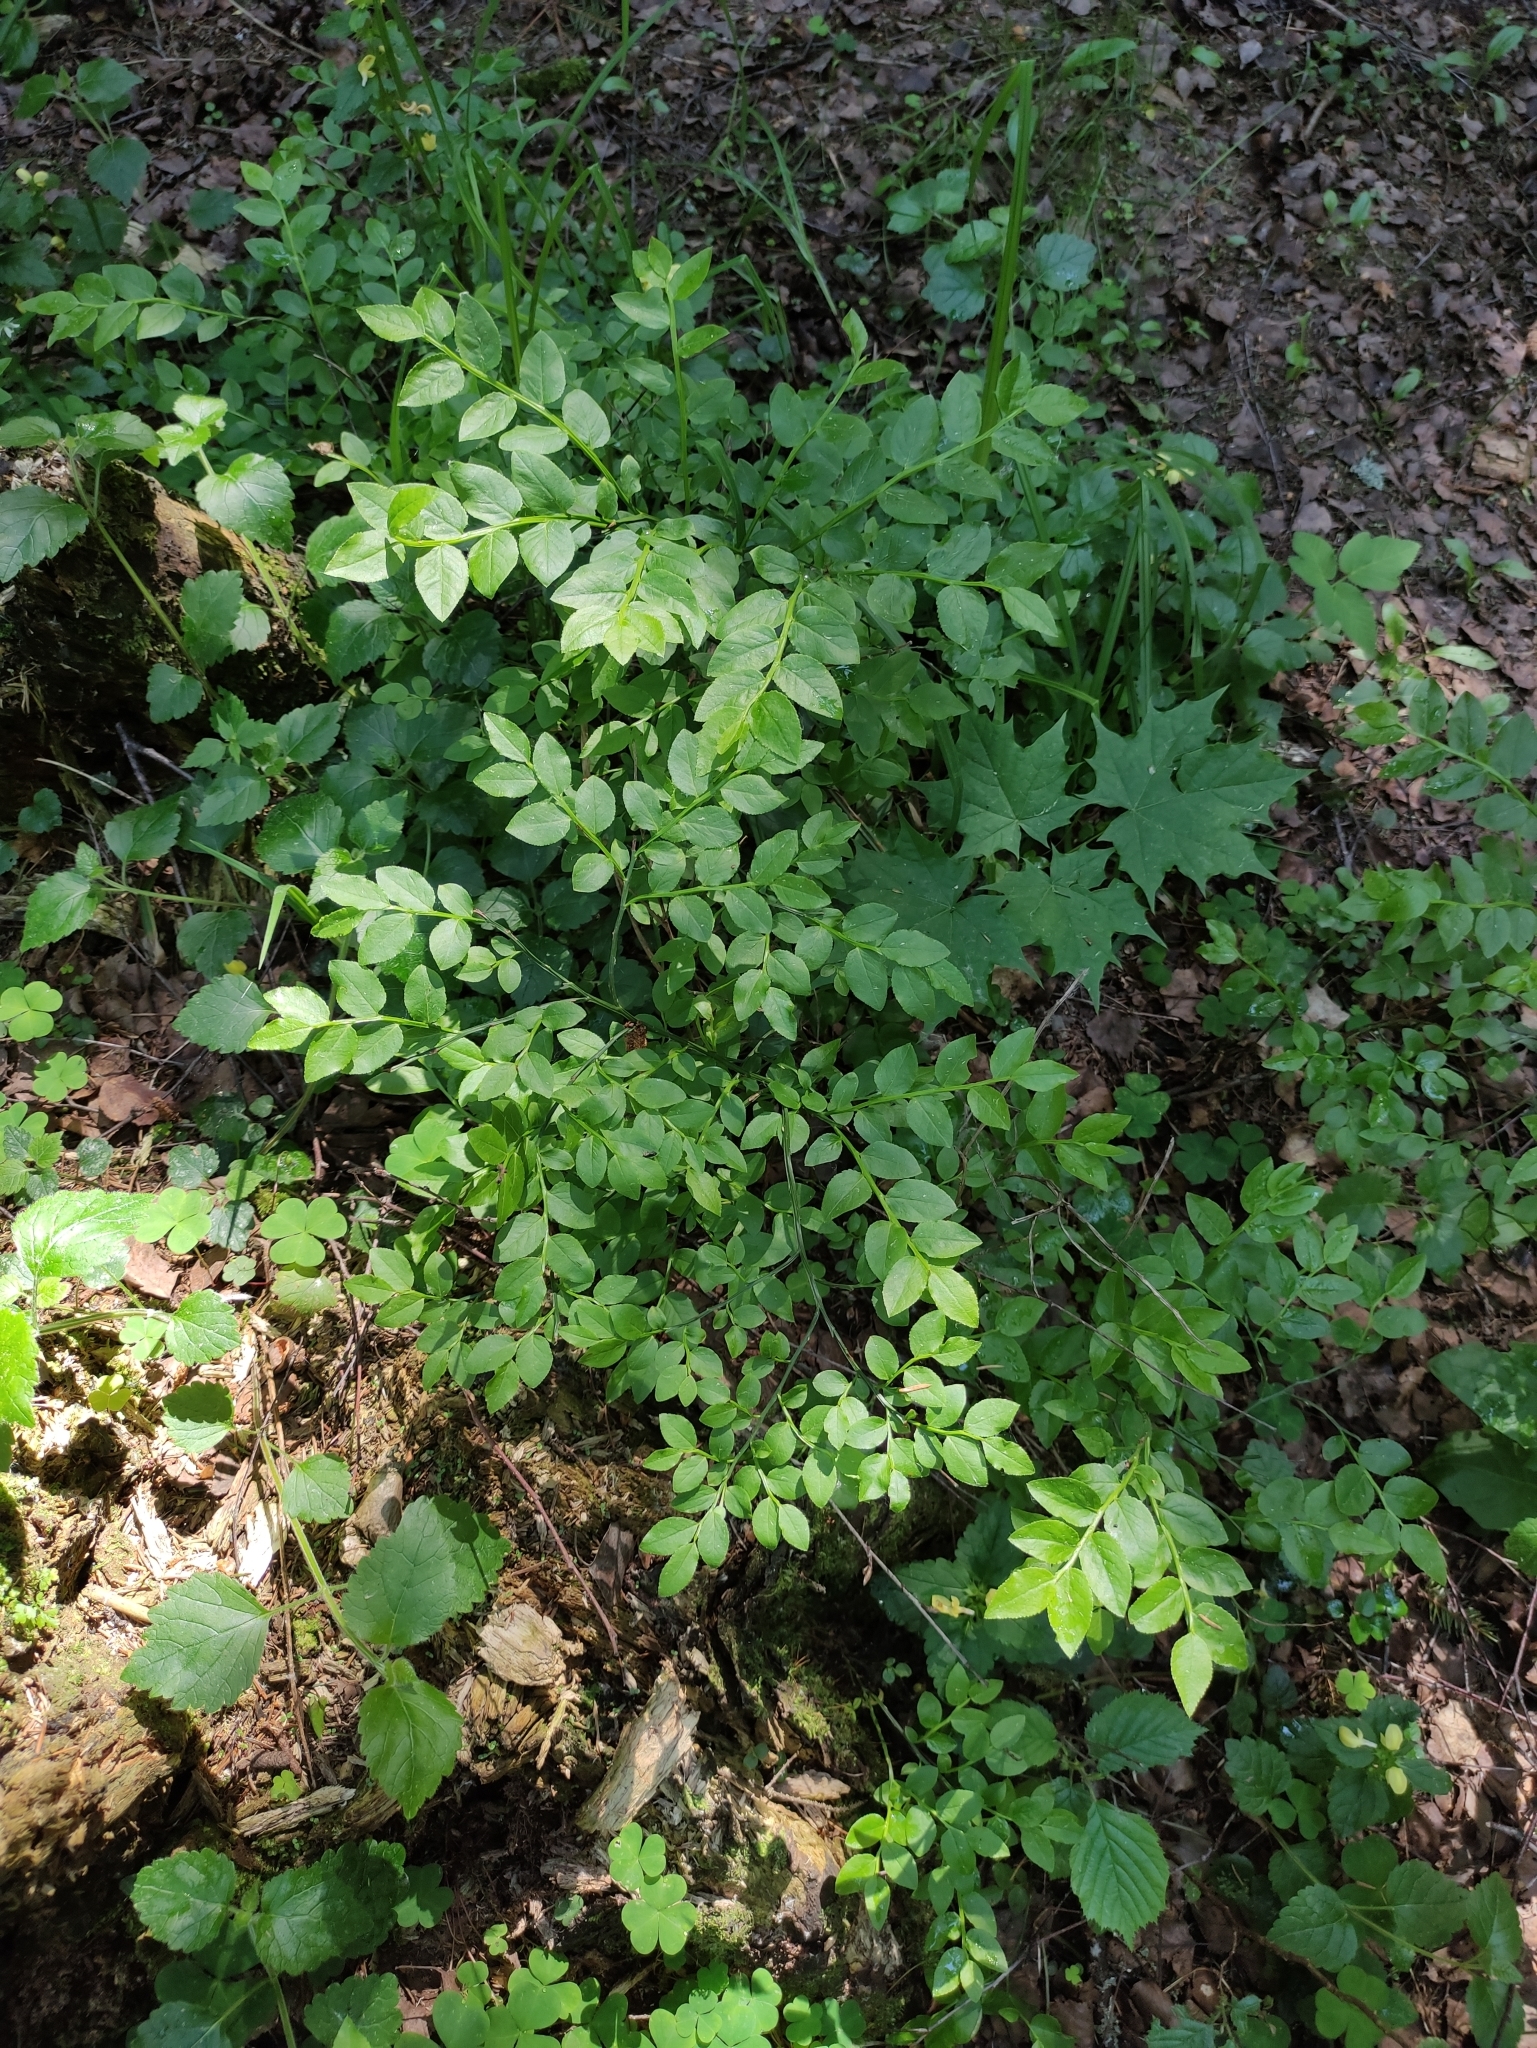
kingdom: Plantae
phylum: Tracheophyta
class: Magnoliopsida
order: Ericales
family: Ericaceae
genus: Vaccinium
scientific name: Vaccinium myrtillus
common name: Bilberry
